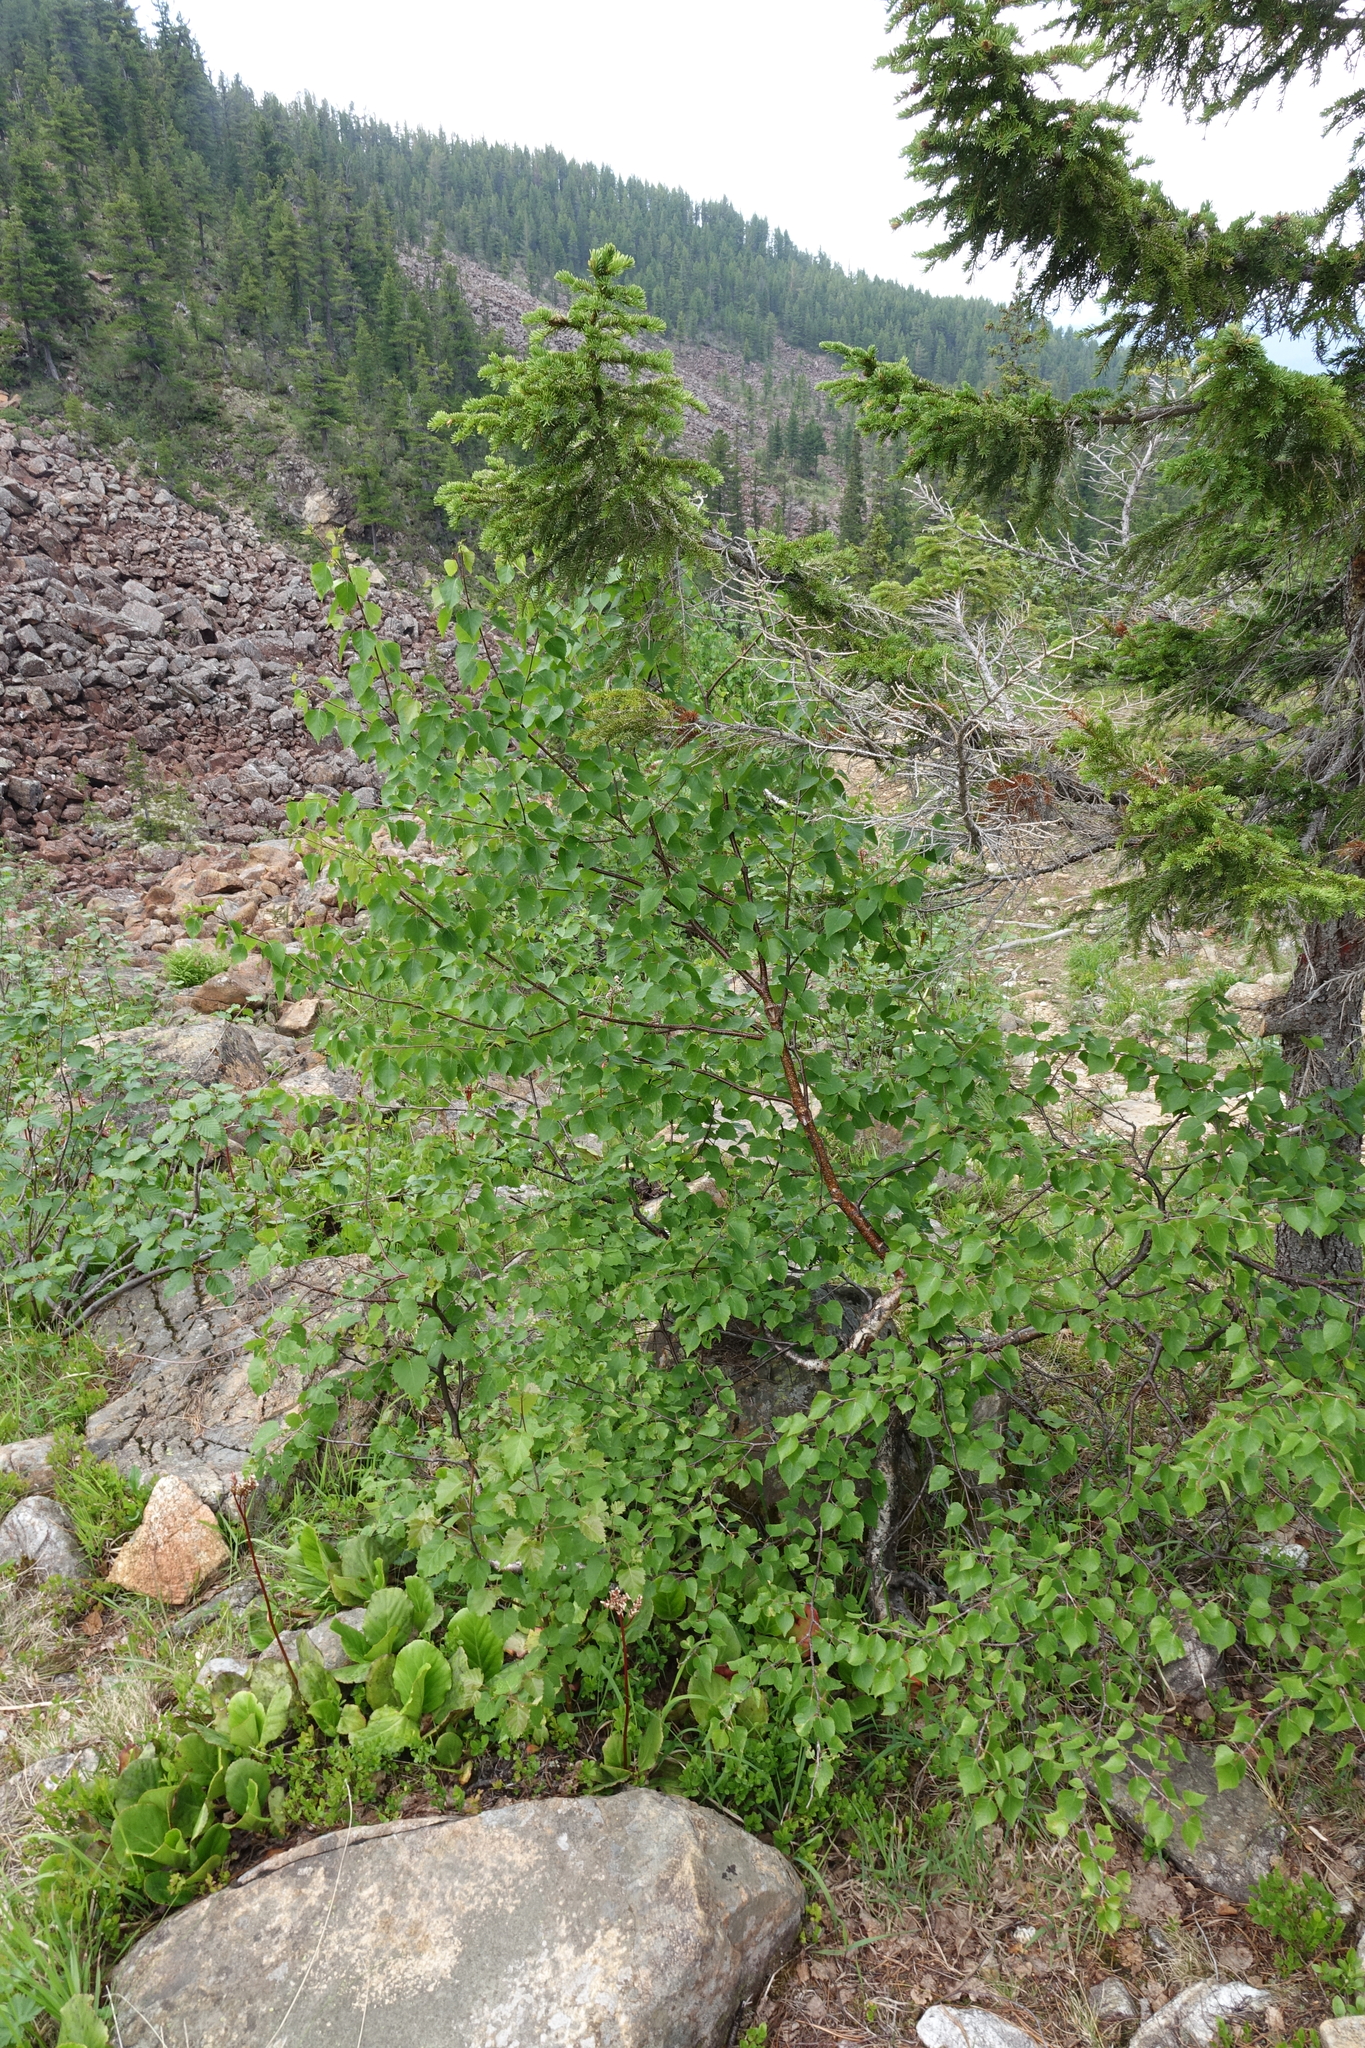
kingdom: Plantae
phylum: Tracheophyta
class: Magnoliopsida
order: Fagales
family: Betulaceae
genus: Betula
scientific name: Betula pendula
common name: Silver birch
